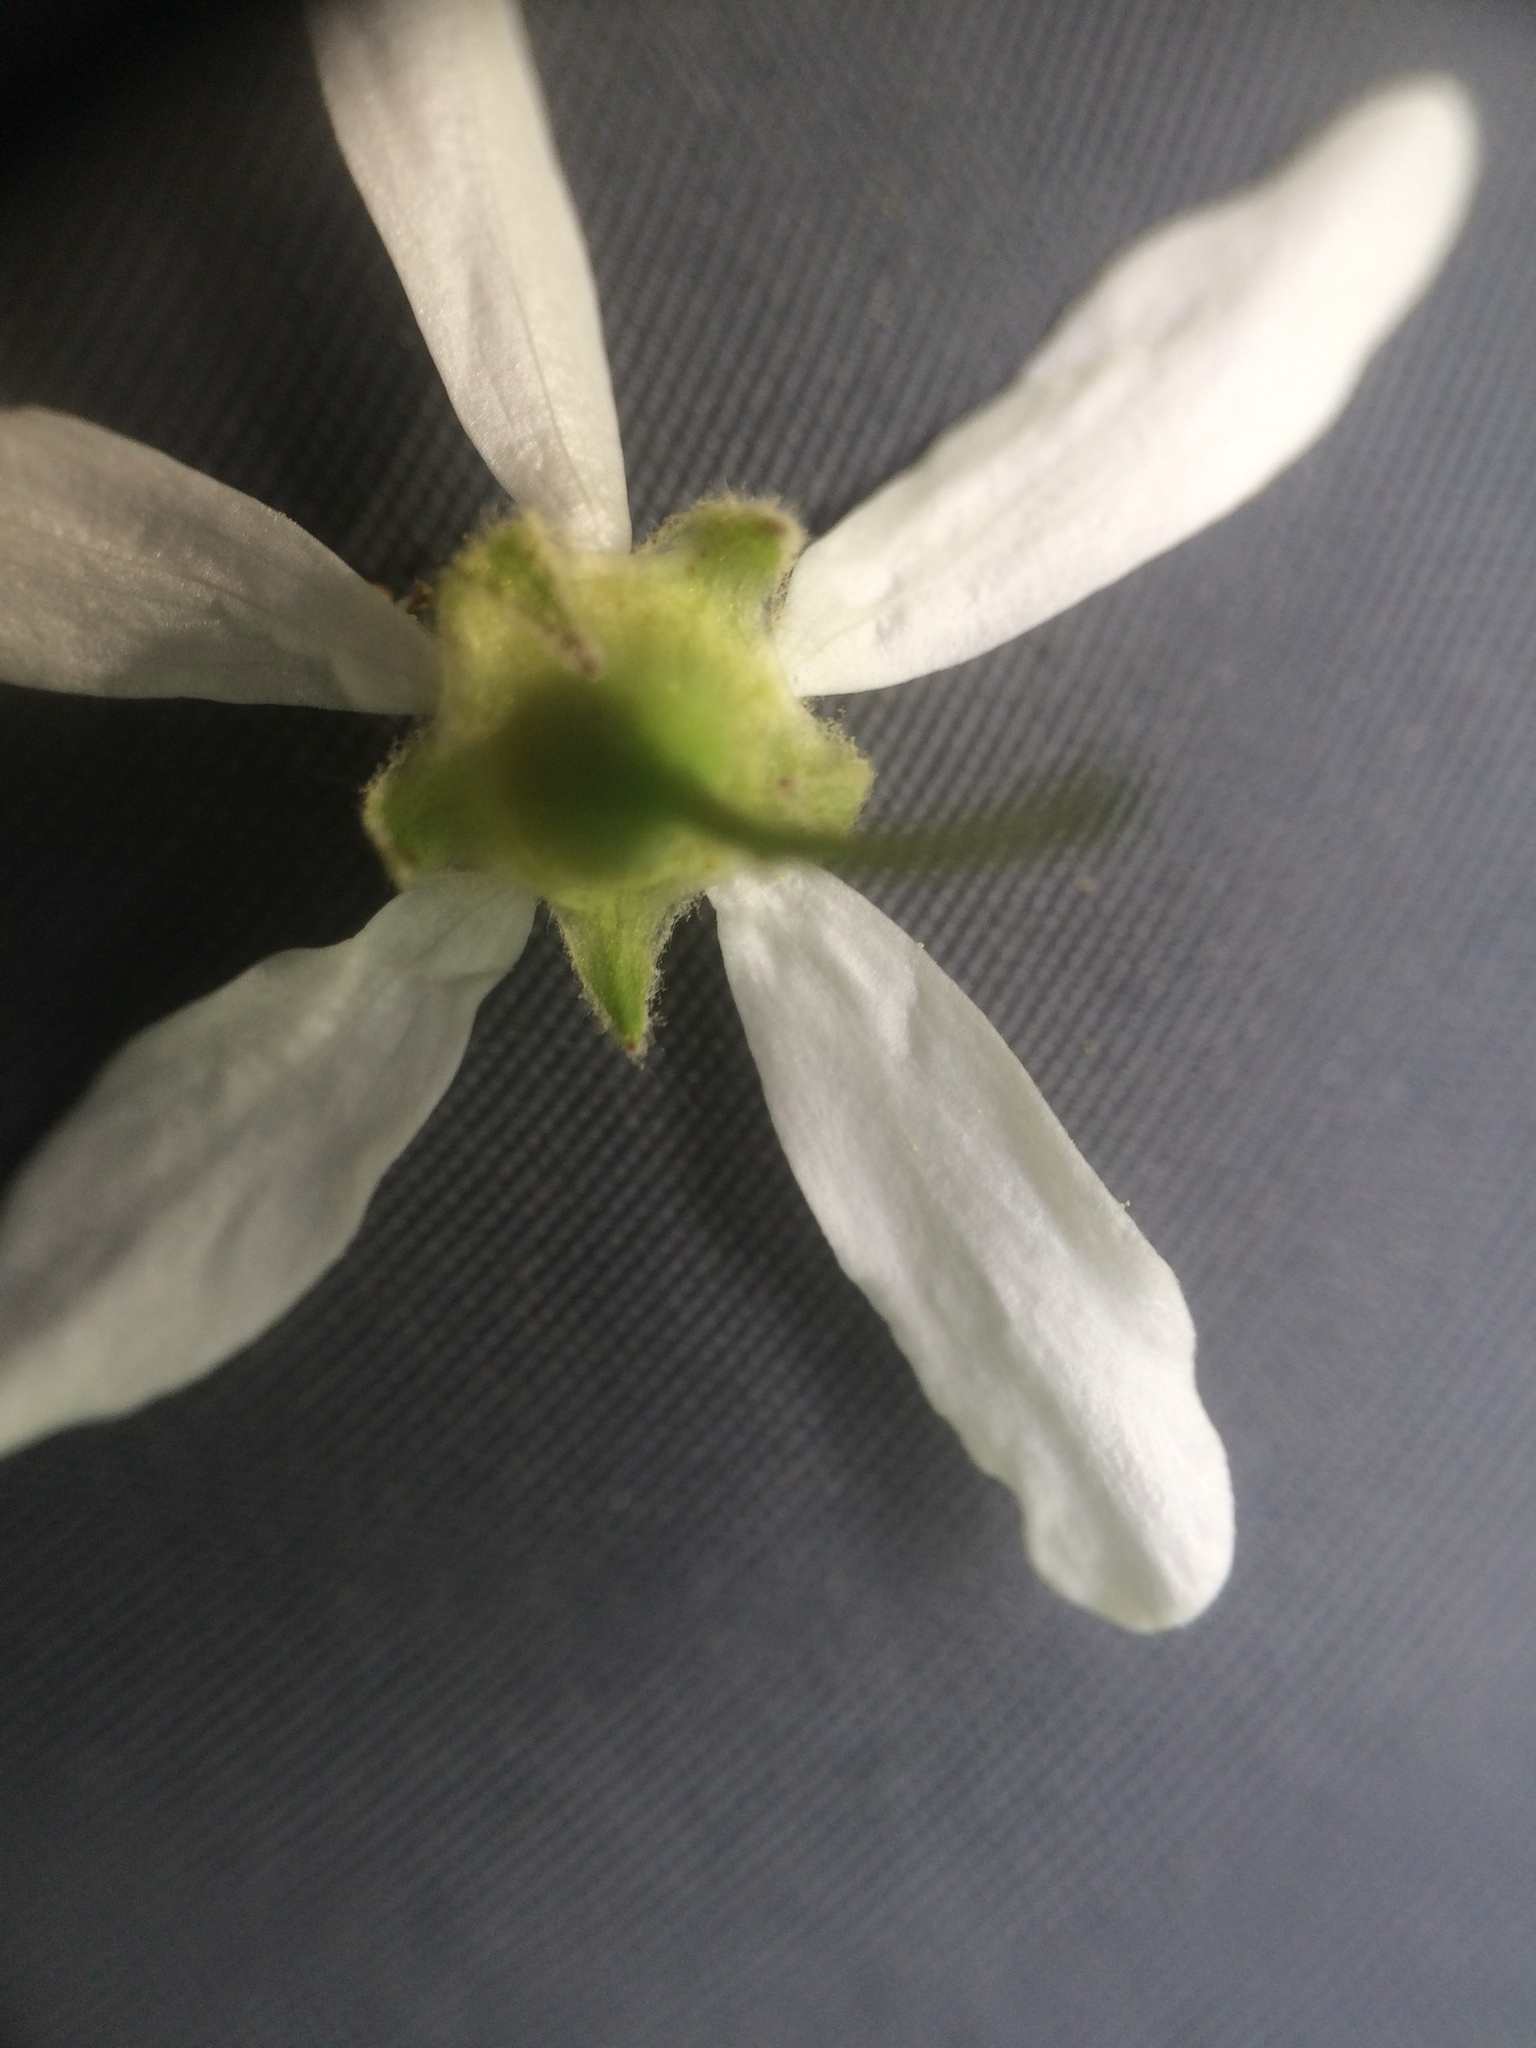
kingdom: Plantae
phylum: Tracheophyta
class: Magnoliopsida
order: Rosales
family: Rosaceae
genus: Amelanchier
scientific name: Amelanchier sanguinea
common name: Huron serviceberry
